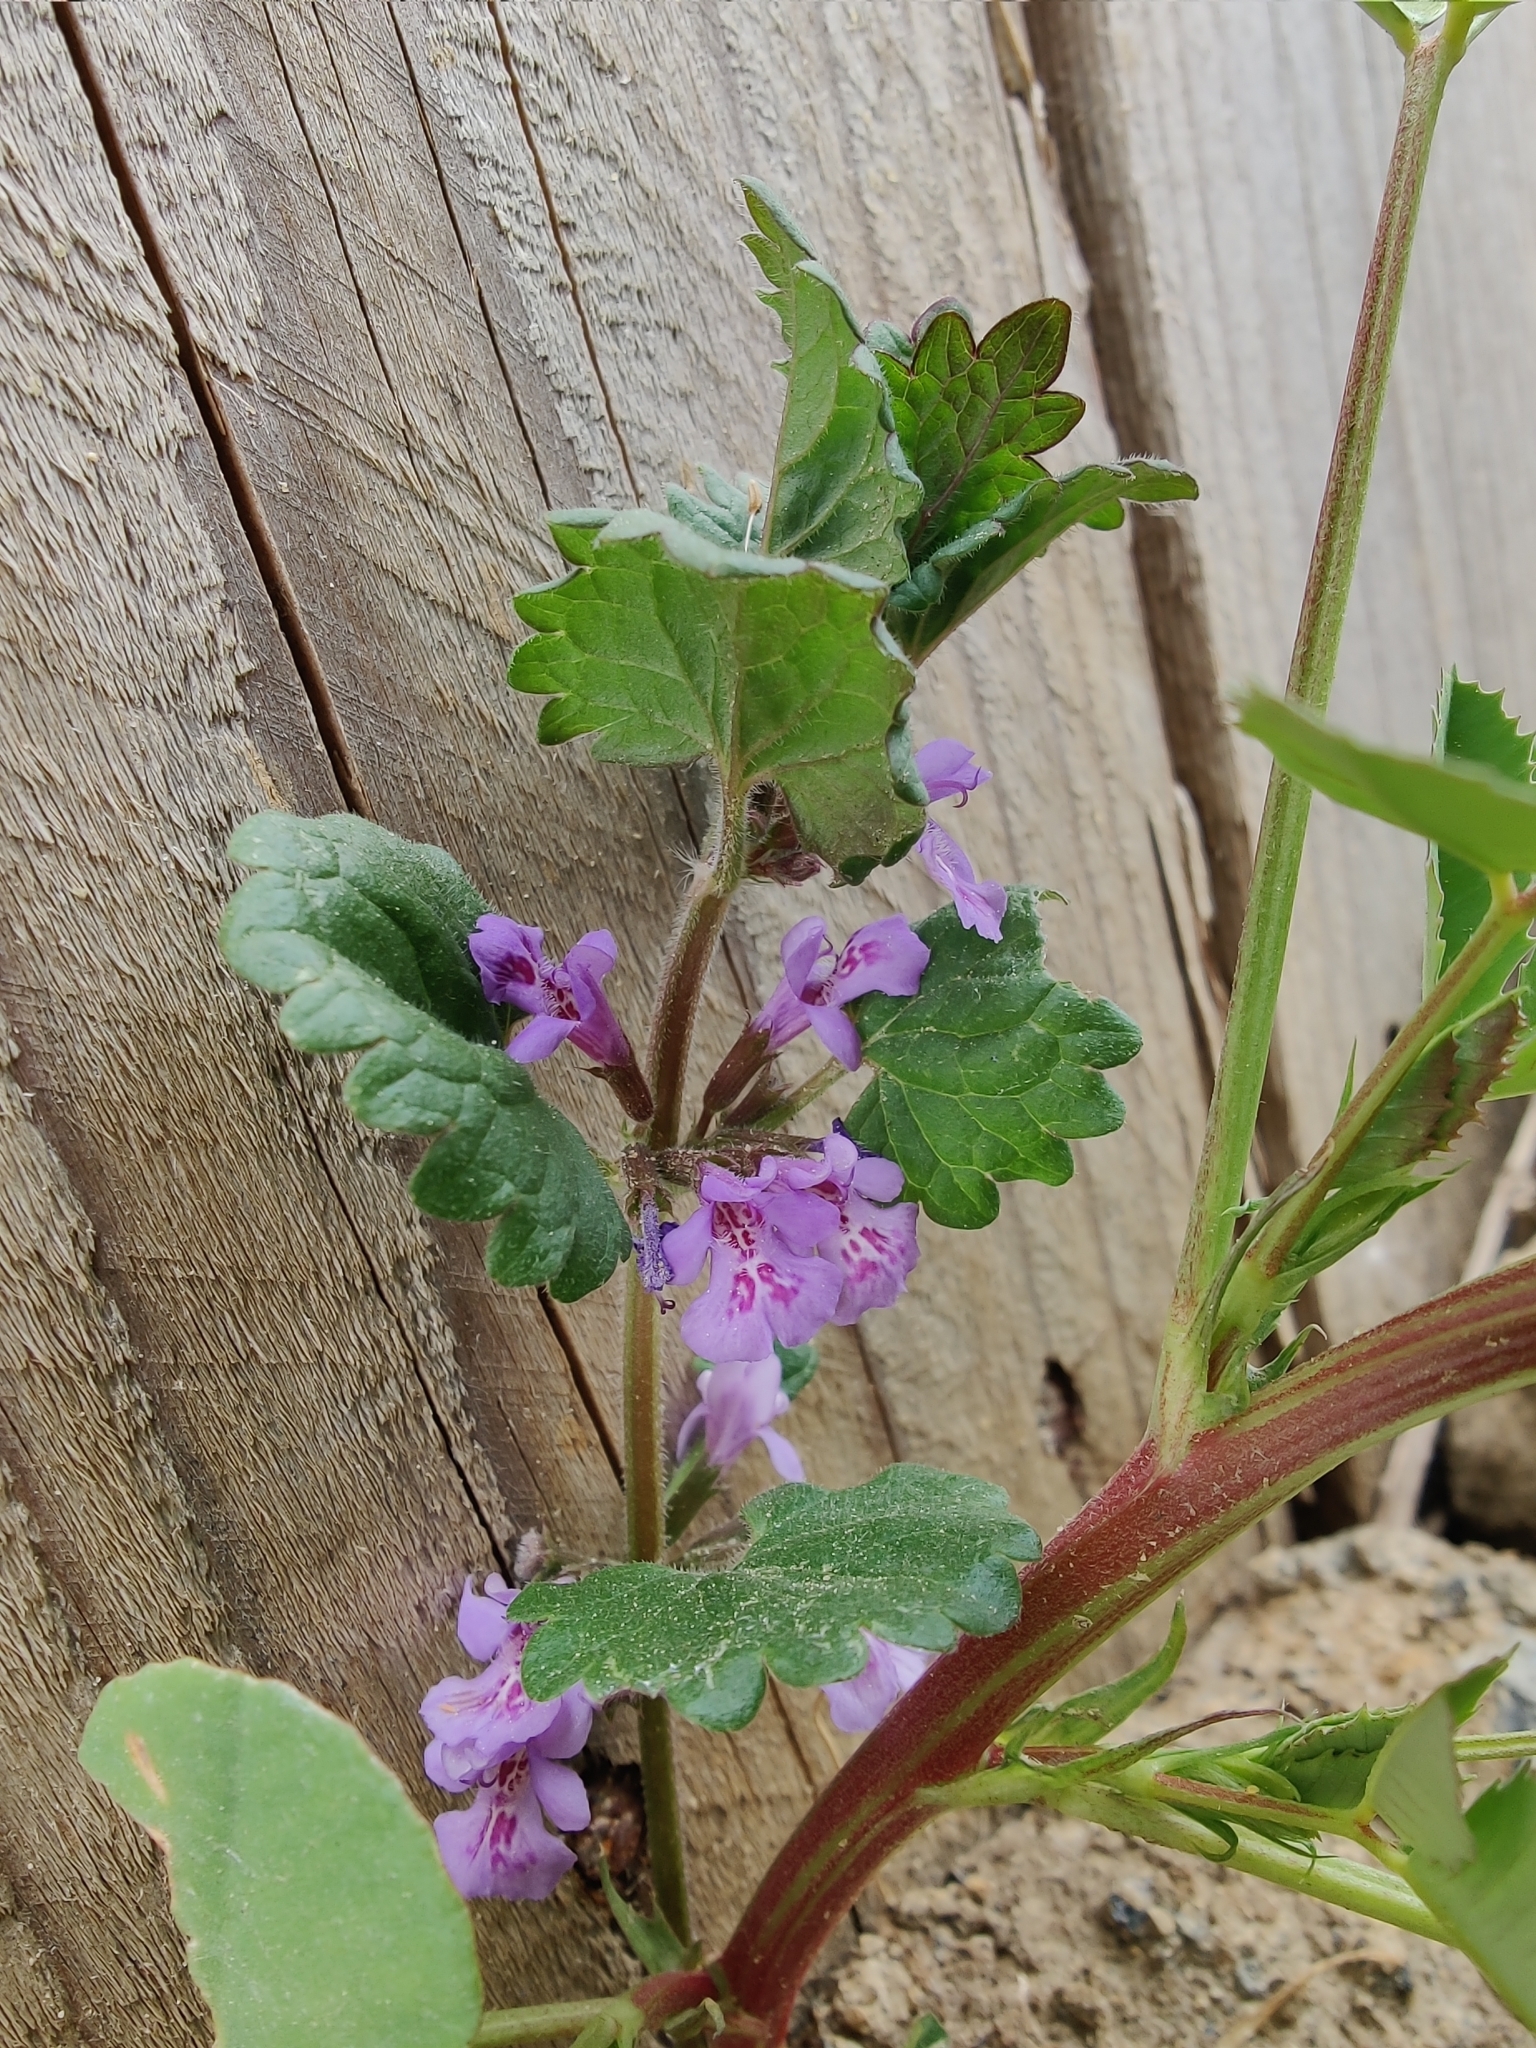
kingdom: Plantae
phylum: Tracheophyta
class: Magnoliopsida
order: Lamiales
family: Lamiaceae
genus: Glechoma
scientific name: Glechoma hederacea
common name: Ground ivy
